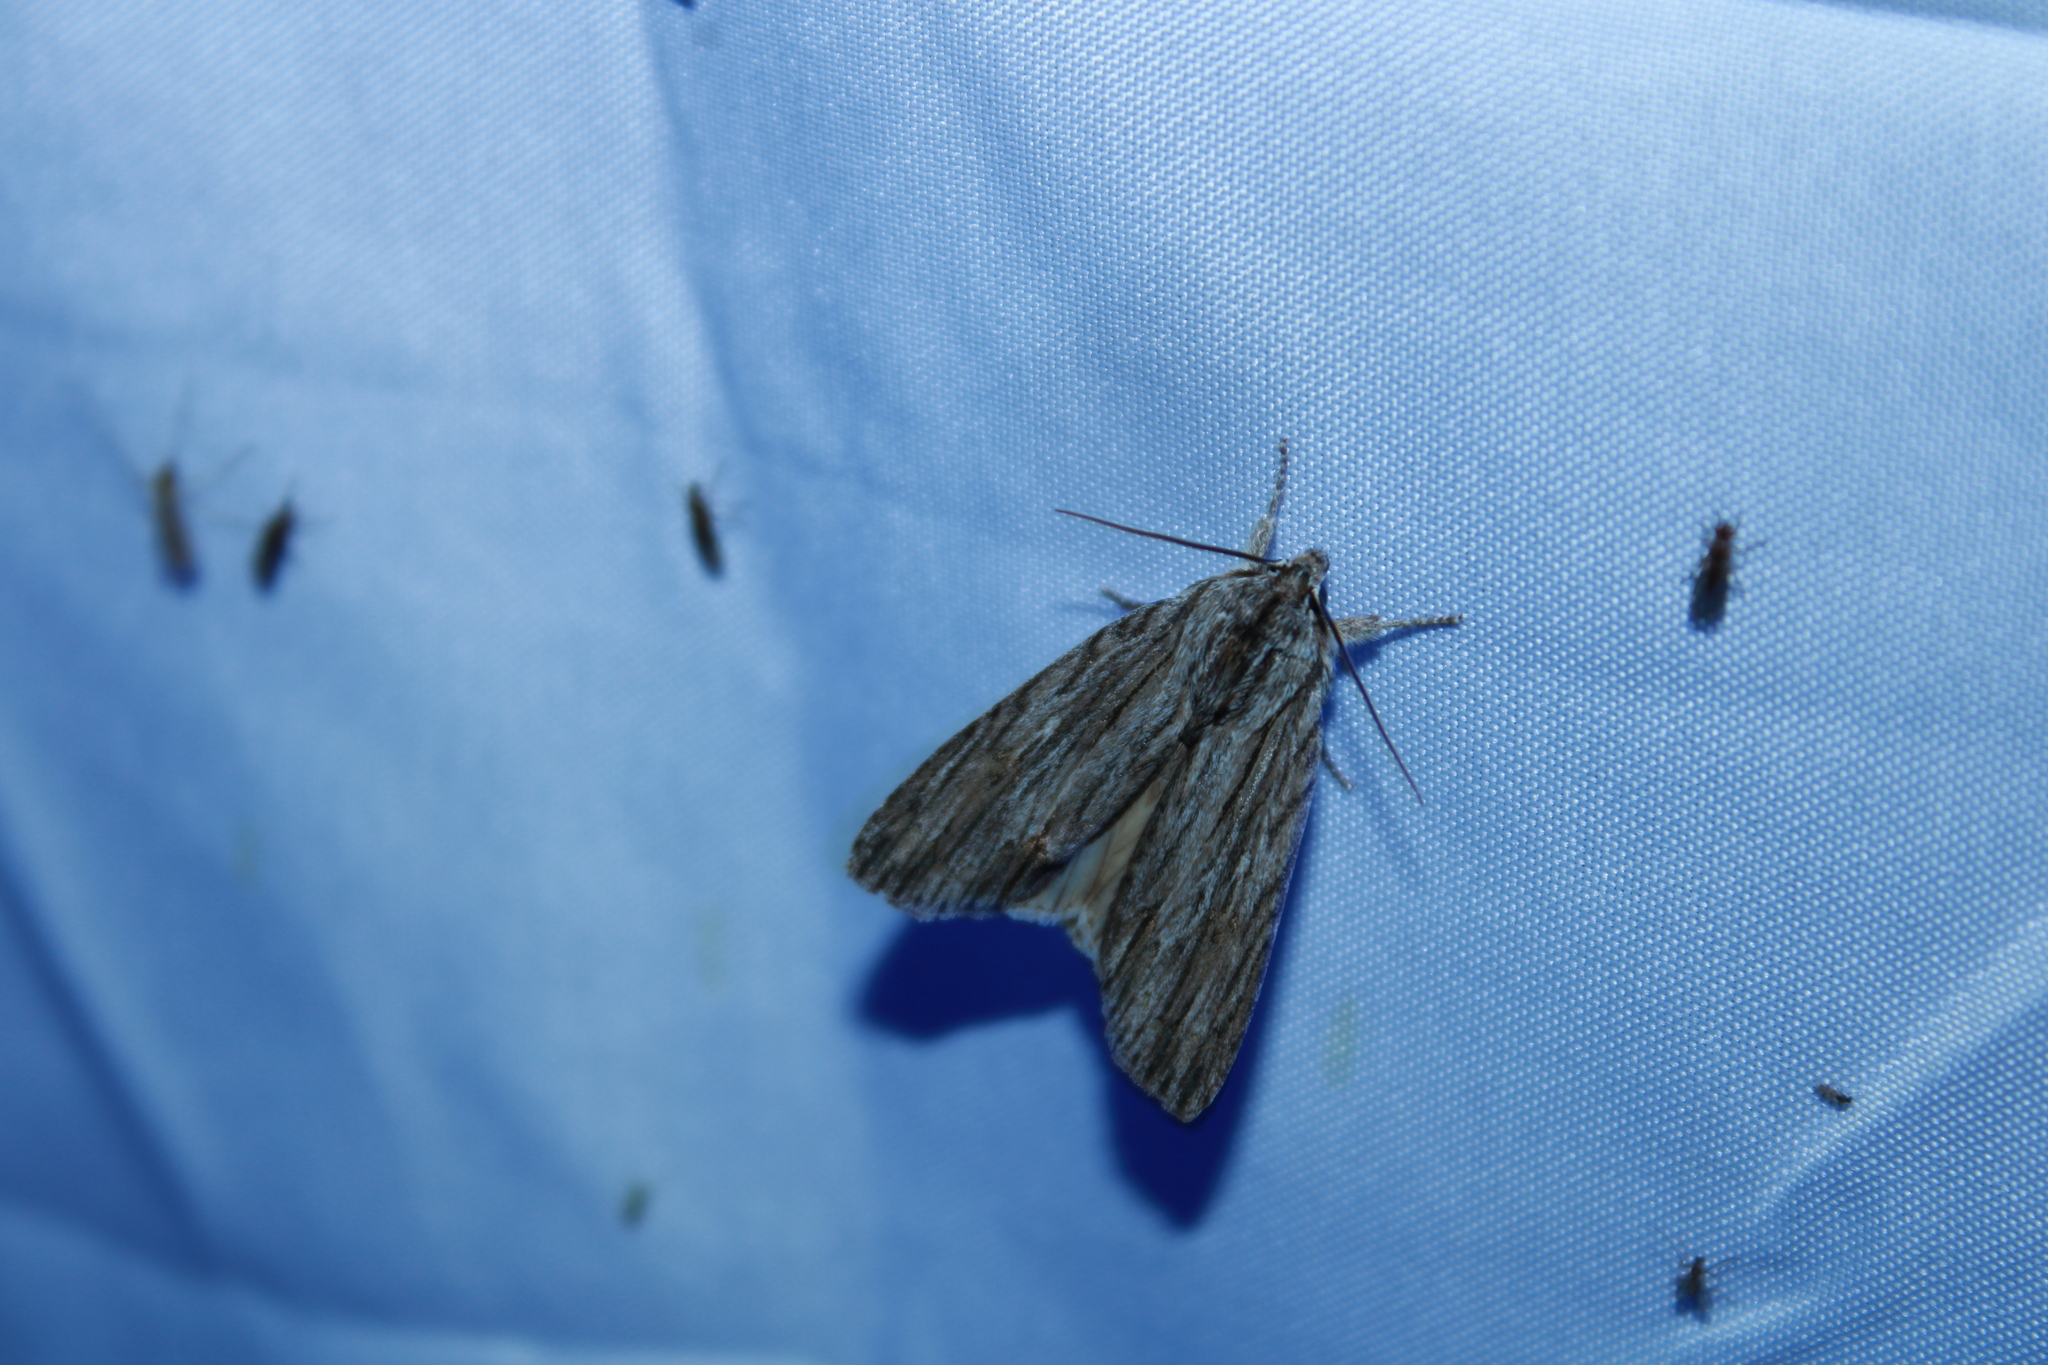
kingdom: Animalia
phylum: Arthropoda
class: Insecta
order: Lepidoptera
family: Noctuidae
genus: Acronicta
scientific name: Acronicta lithospila
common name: Streaked dagger
